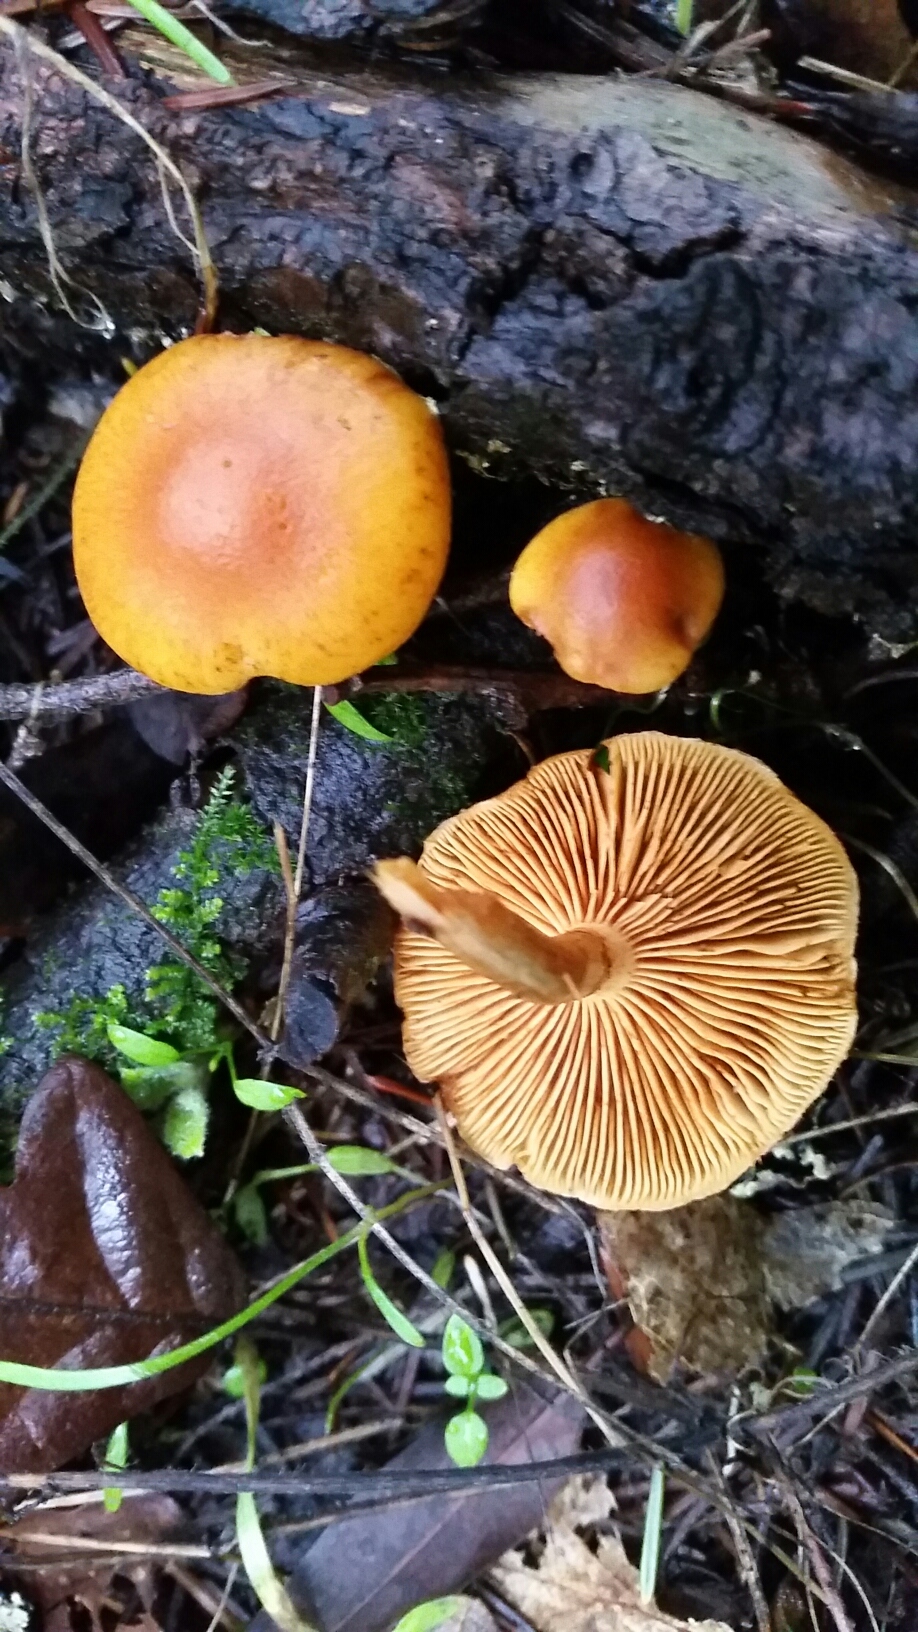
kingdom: Fungi
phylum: Basidiomycota
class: Agaricomycetes
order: Agaricales
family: Hymenogastraceae
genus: Gymnopilus
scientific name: Gymnopilus sapineus
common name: Scaly rustgill
